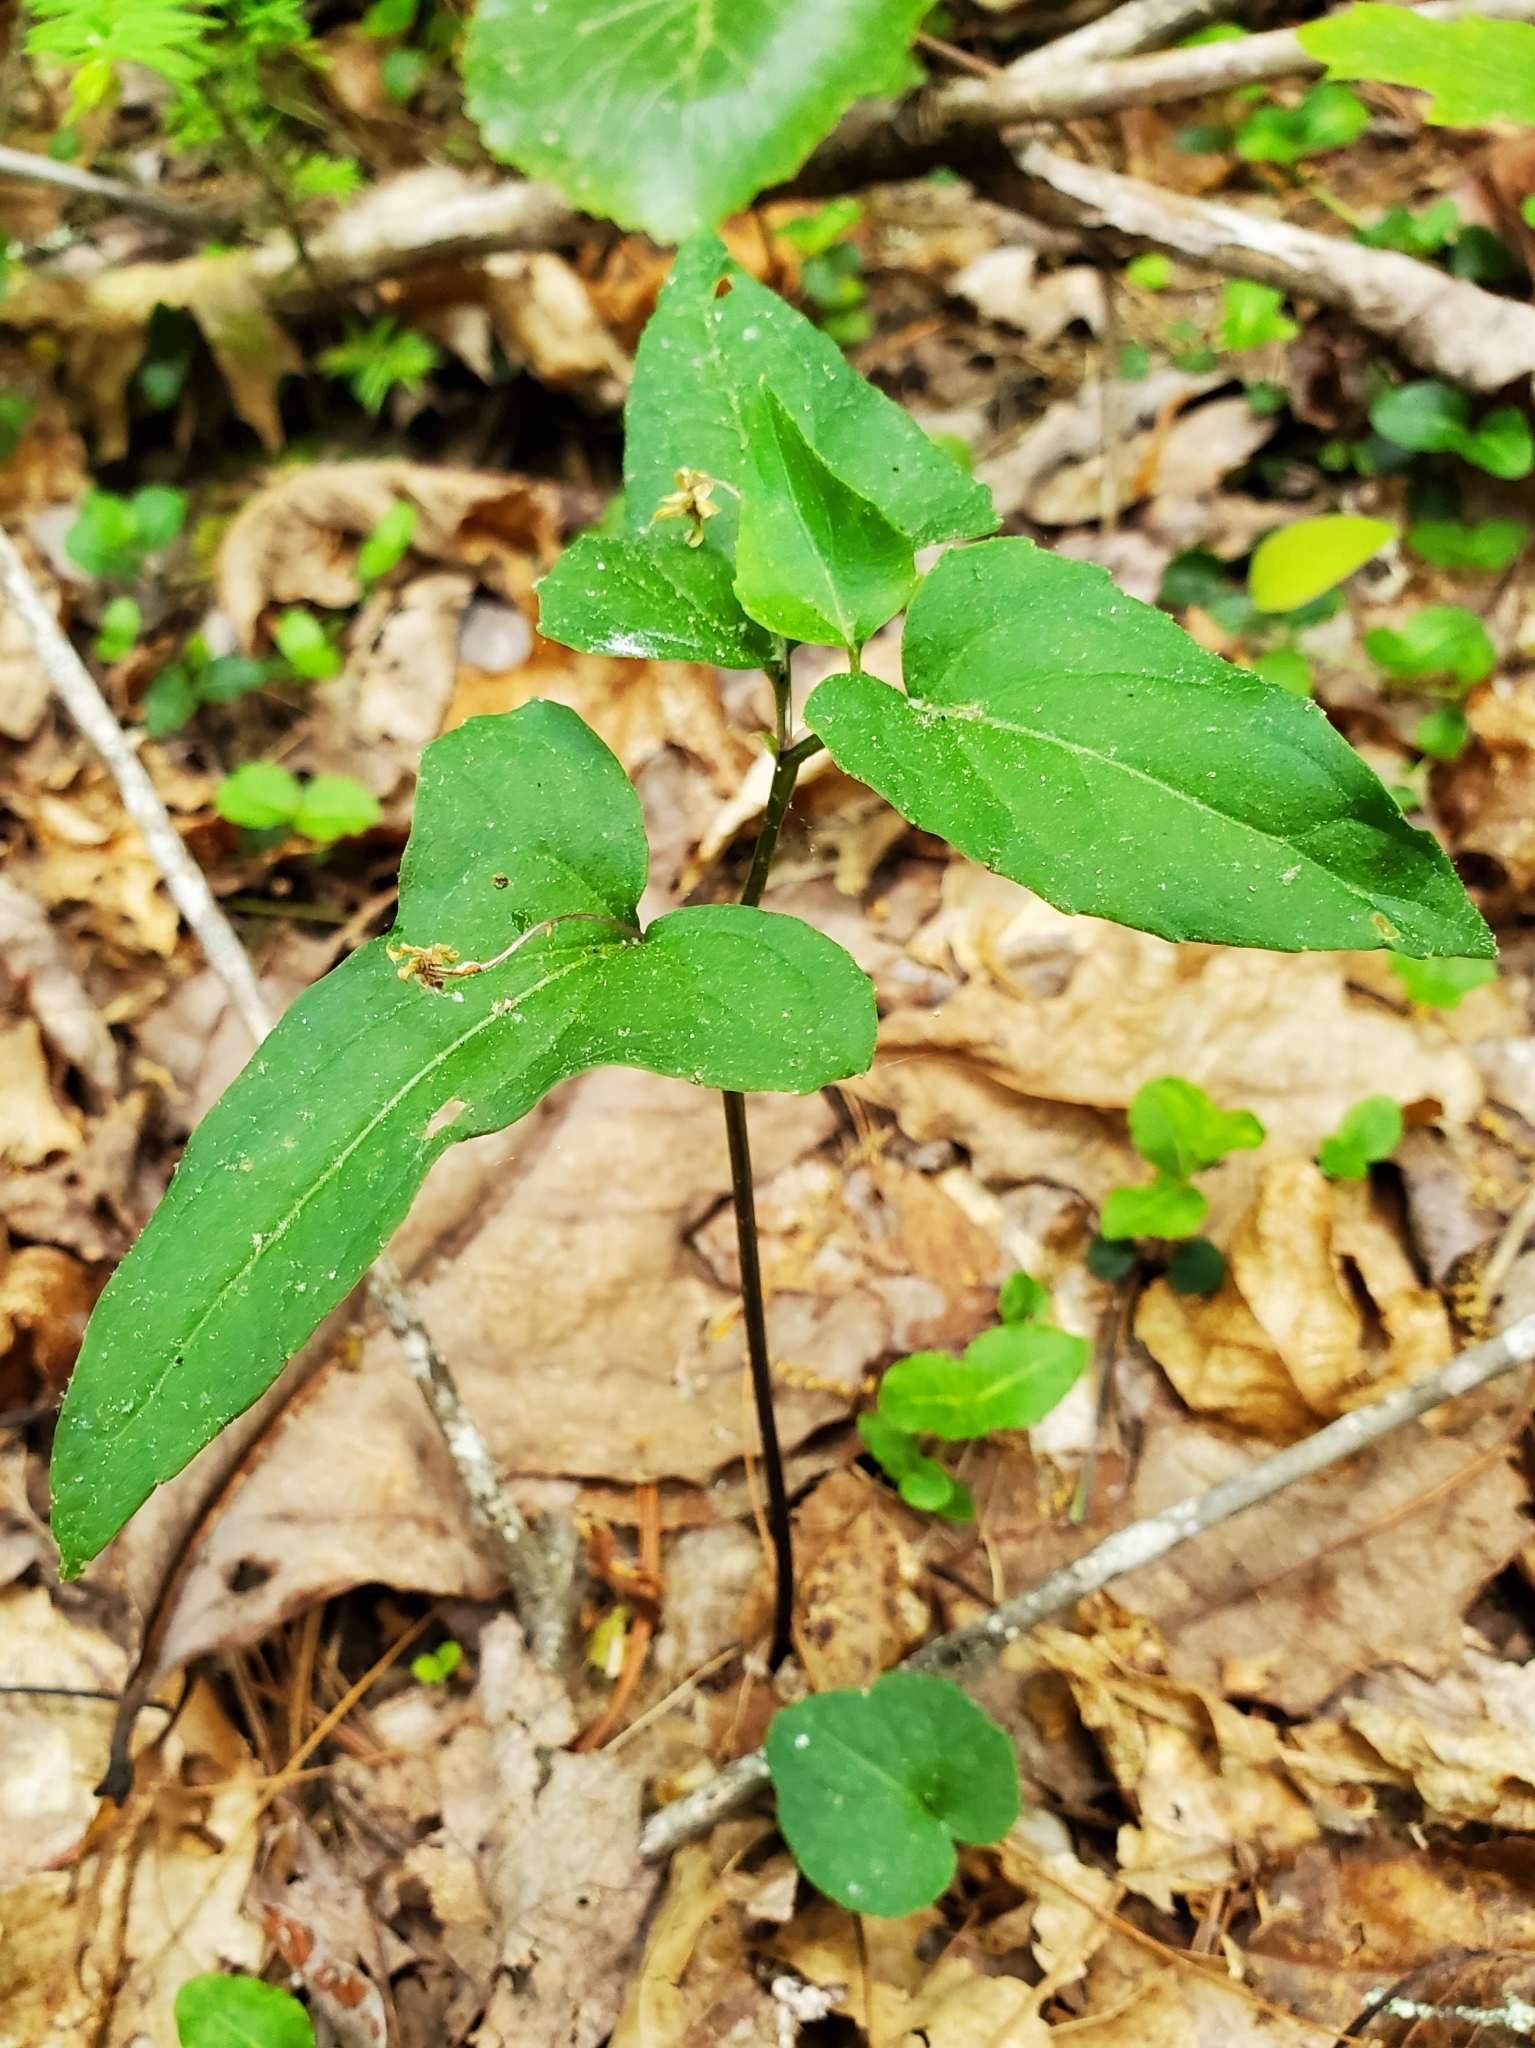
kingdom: Plantae
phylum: Tracheophyta
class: Magnoliopsida
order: Malpighiales
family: Violaceae
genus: Viola
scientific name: Viola hastata
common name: Spear-leaf violet
